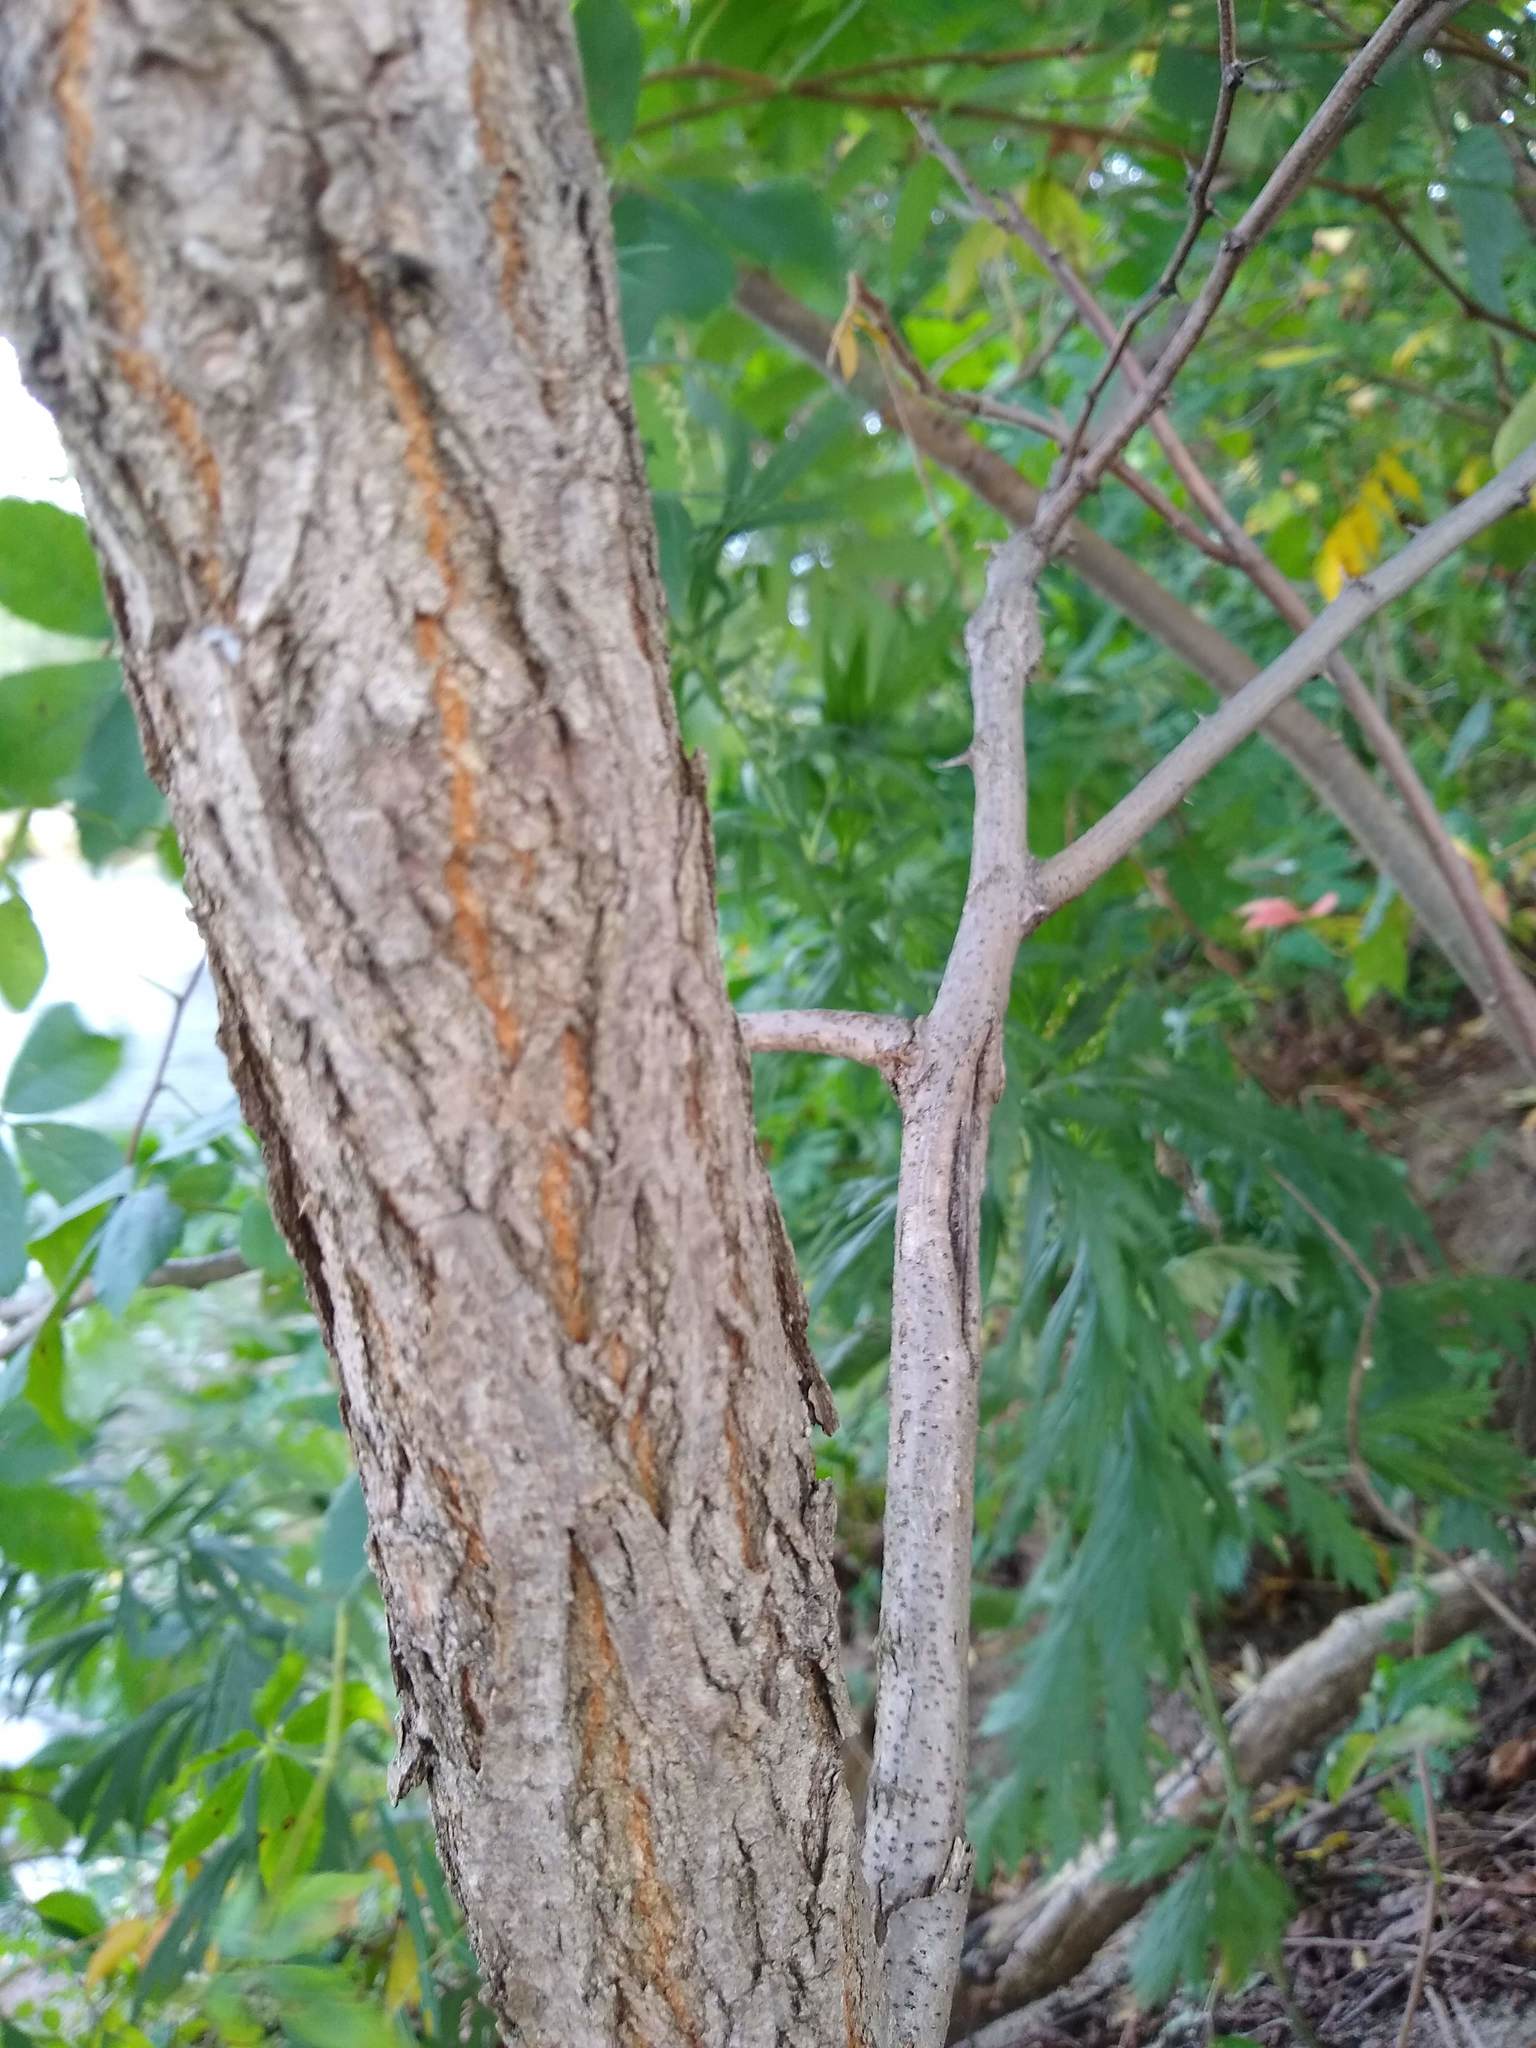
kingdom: Plantae
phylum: Tracheophyta
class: Magnoliopsida
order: Fabales
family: Fabaceae
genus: Robinia
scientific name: Robinia pseudoacacia
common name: Black locust
